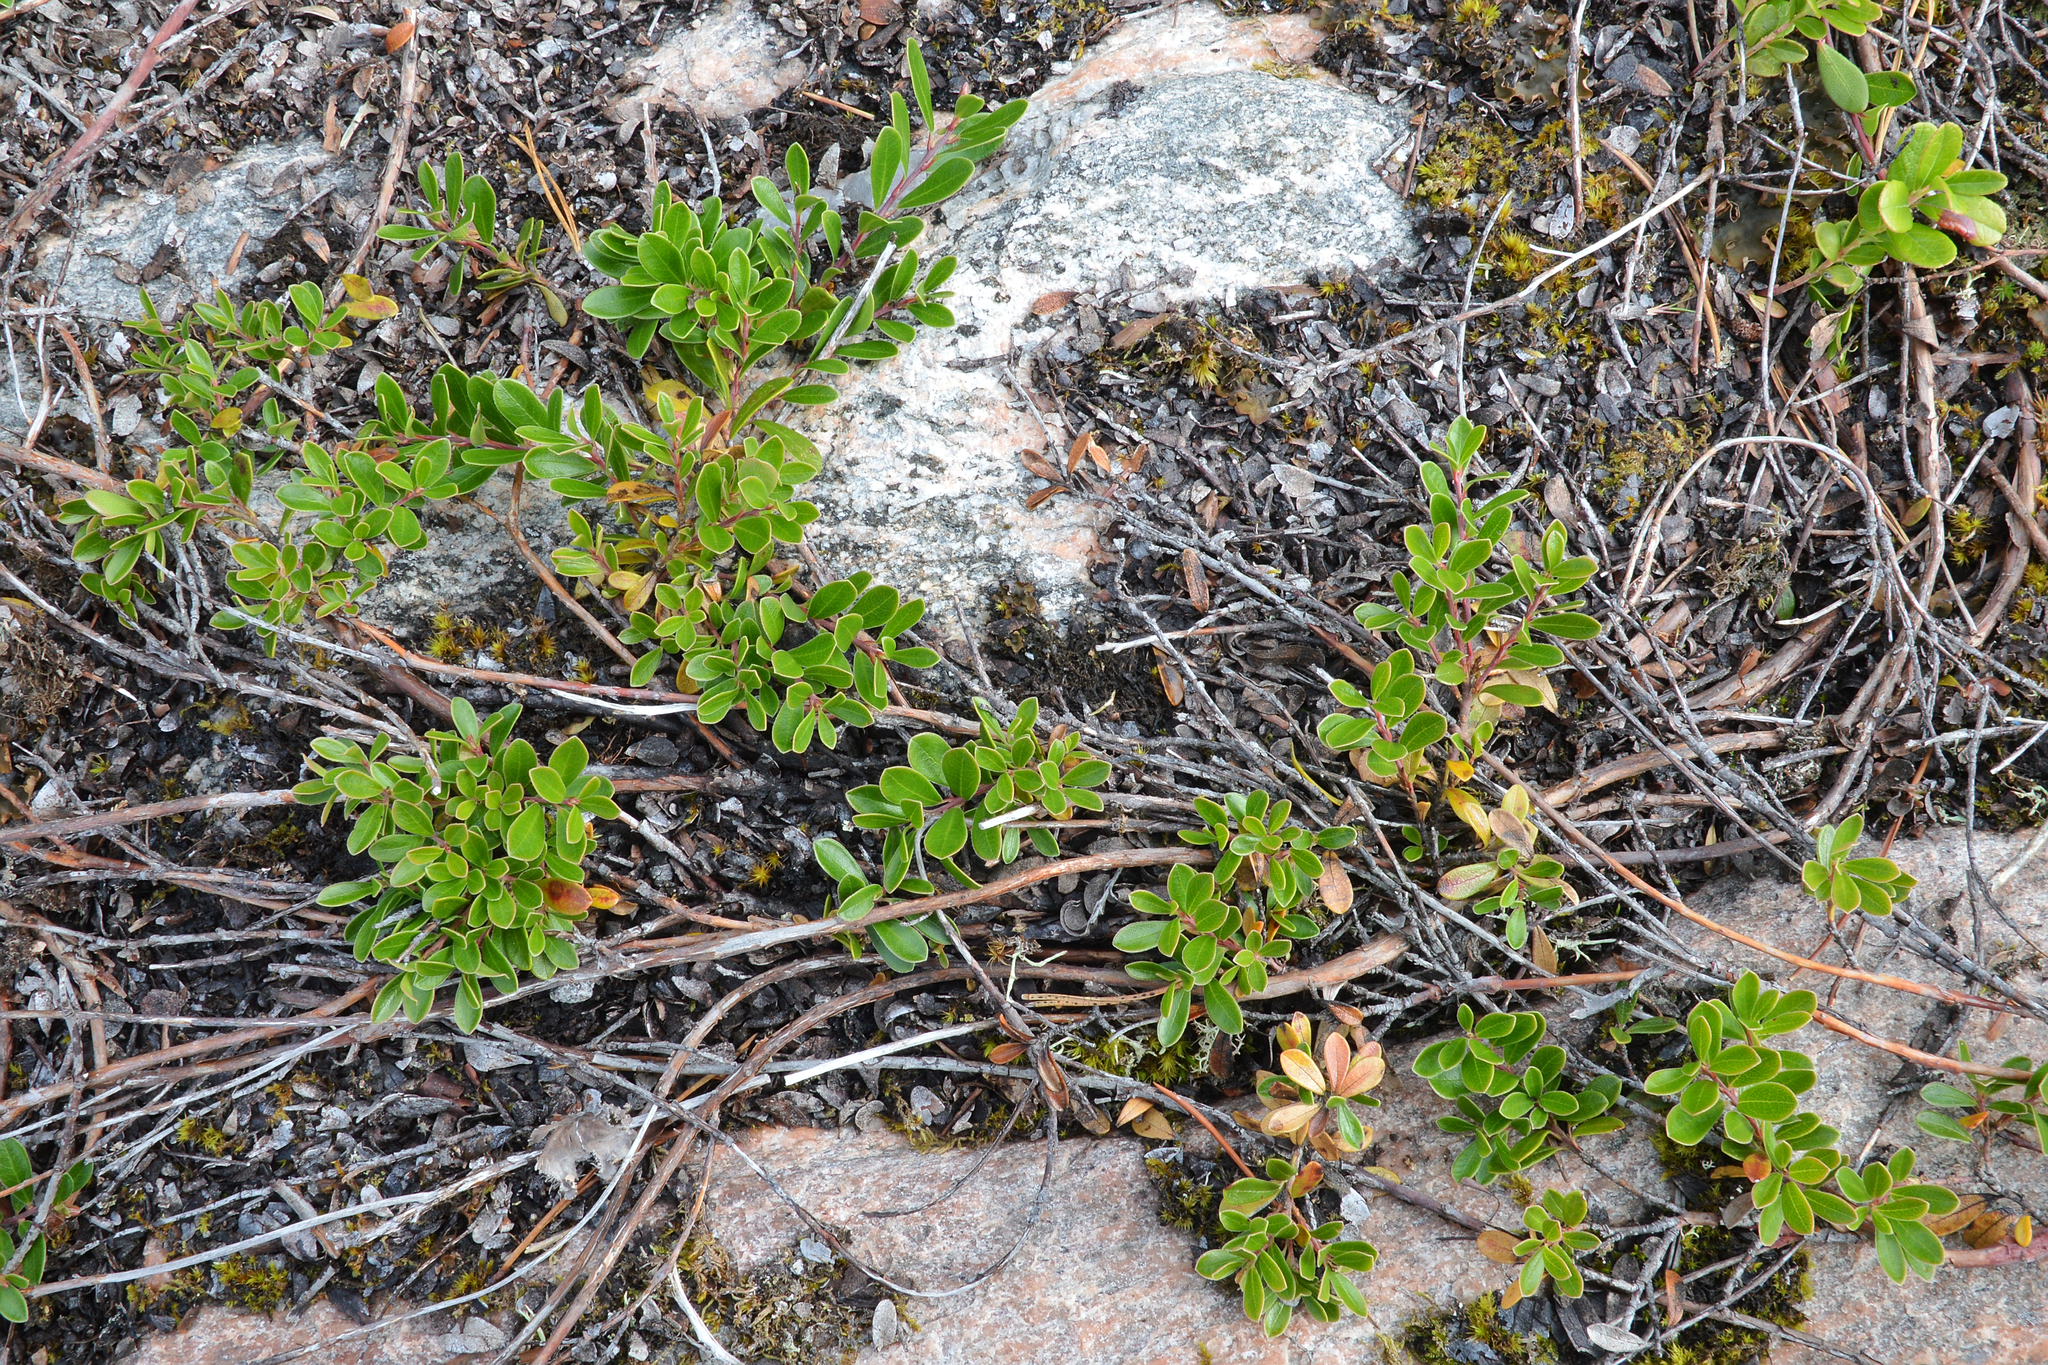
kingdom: Plantae
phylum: Tracheophyta
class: Magnoliopsida
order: Ericales
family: Ericaceae
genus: Arctostaphylos
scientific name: Arctostaphylos uva-ursi
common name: Bearberry
